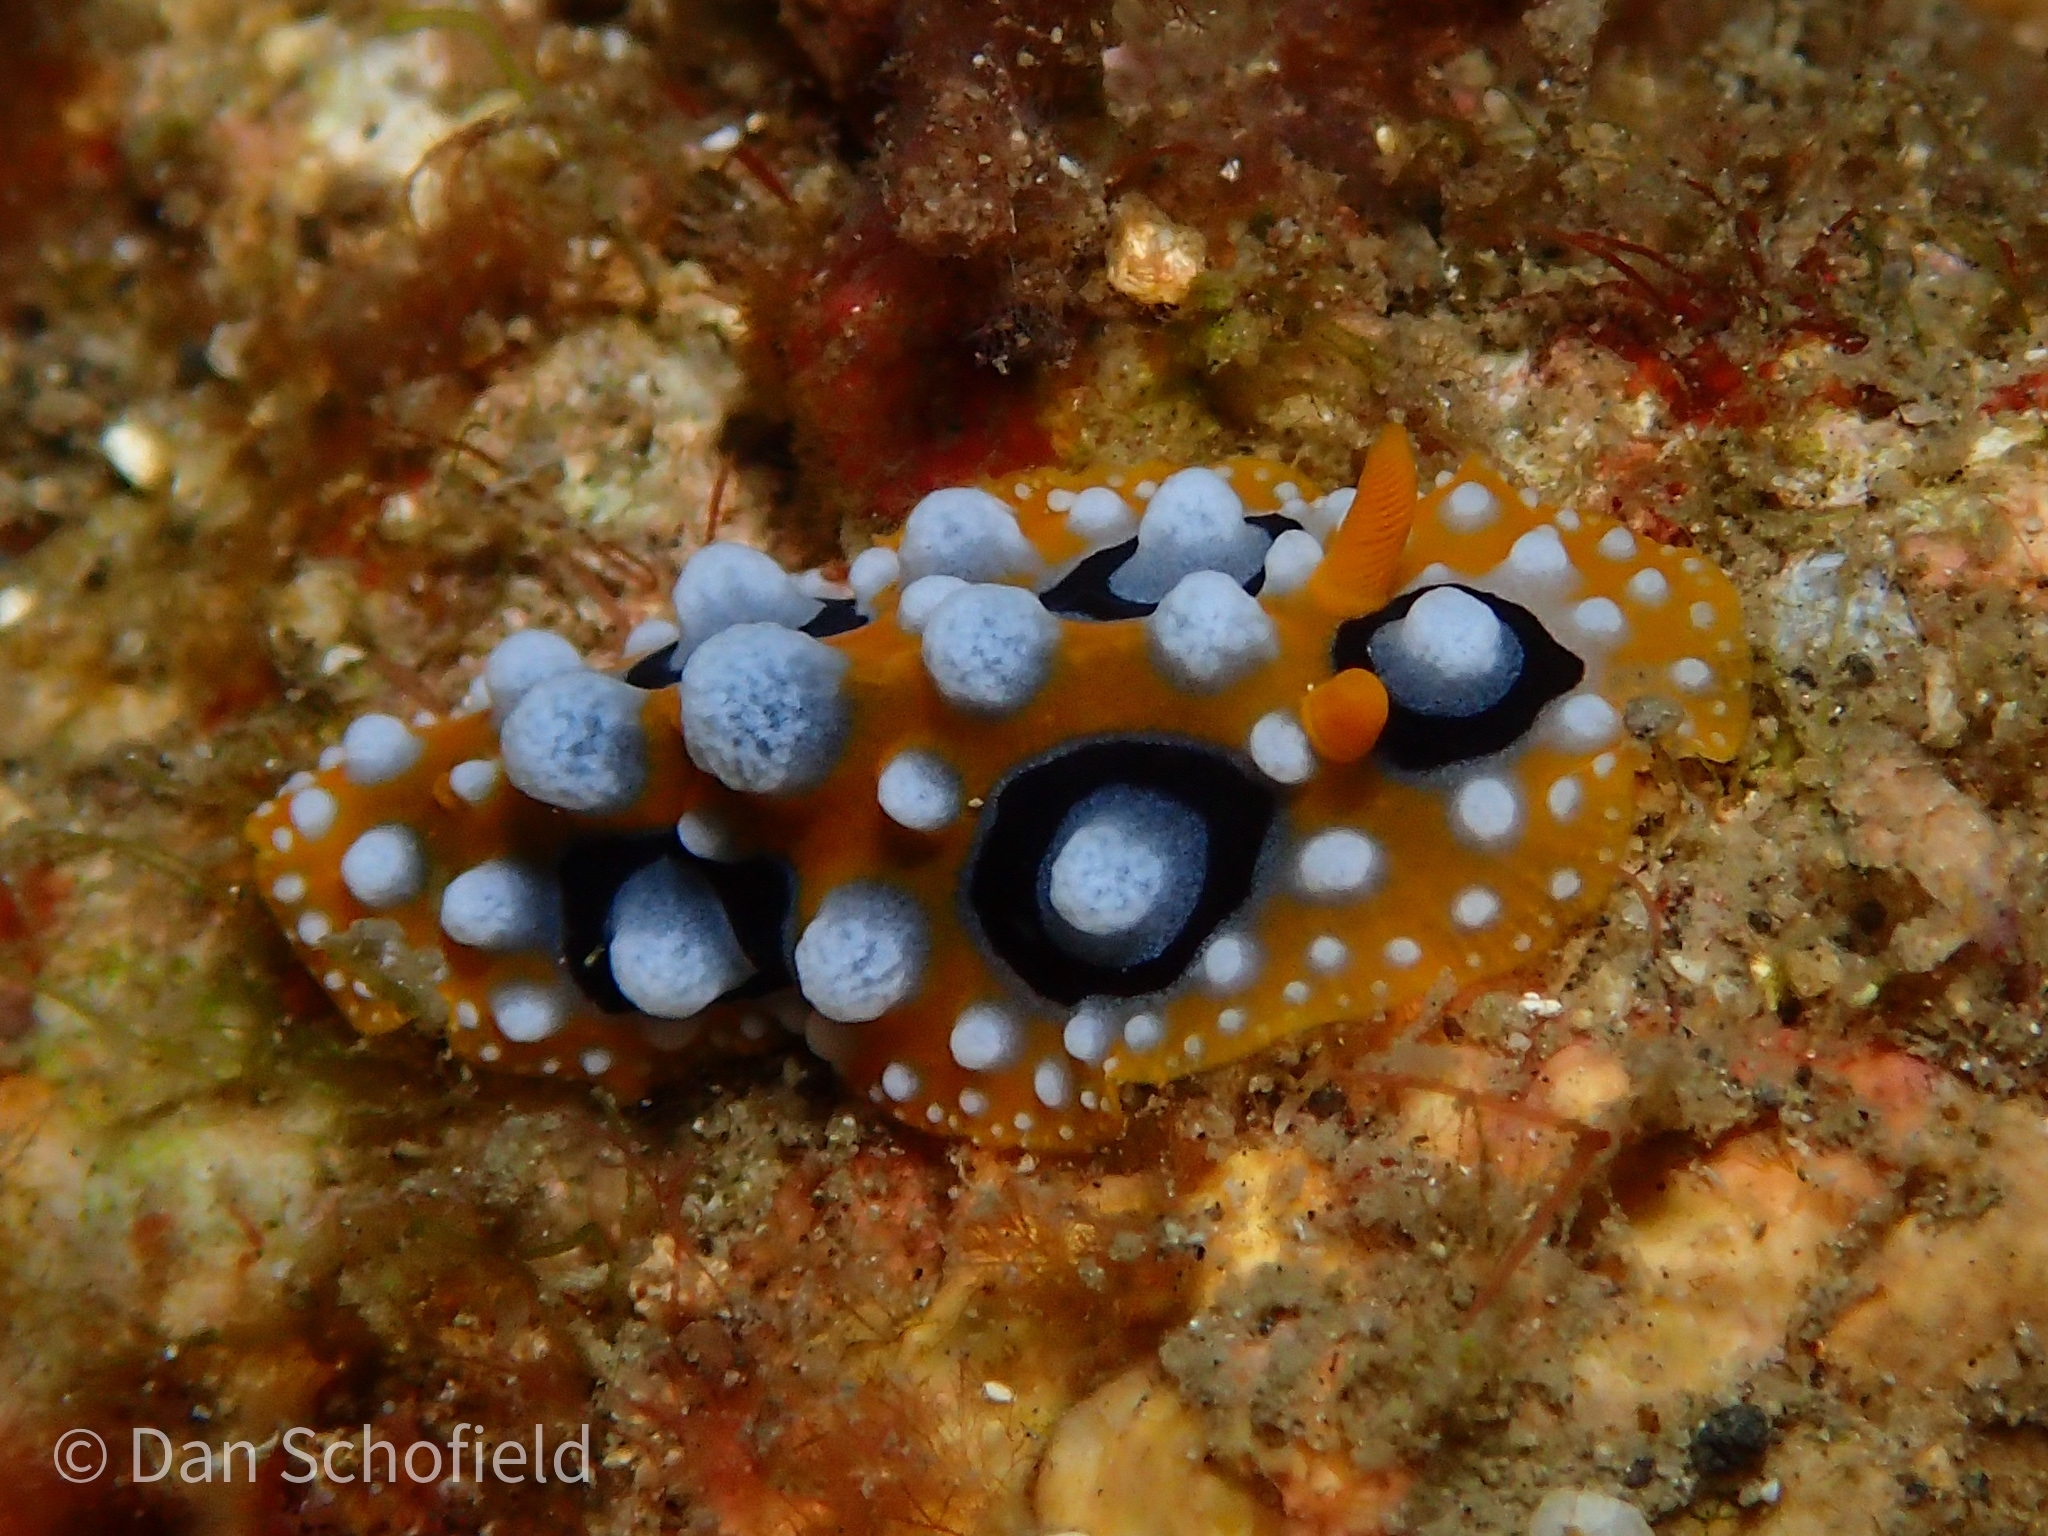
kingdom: Animalia
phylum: Mollusca
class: Gastropoda
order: Nudibranchia
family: Phyllidiidae
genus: Phyllidia
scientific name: Phyllidia ocellata
